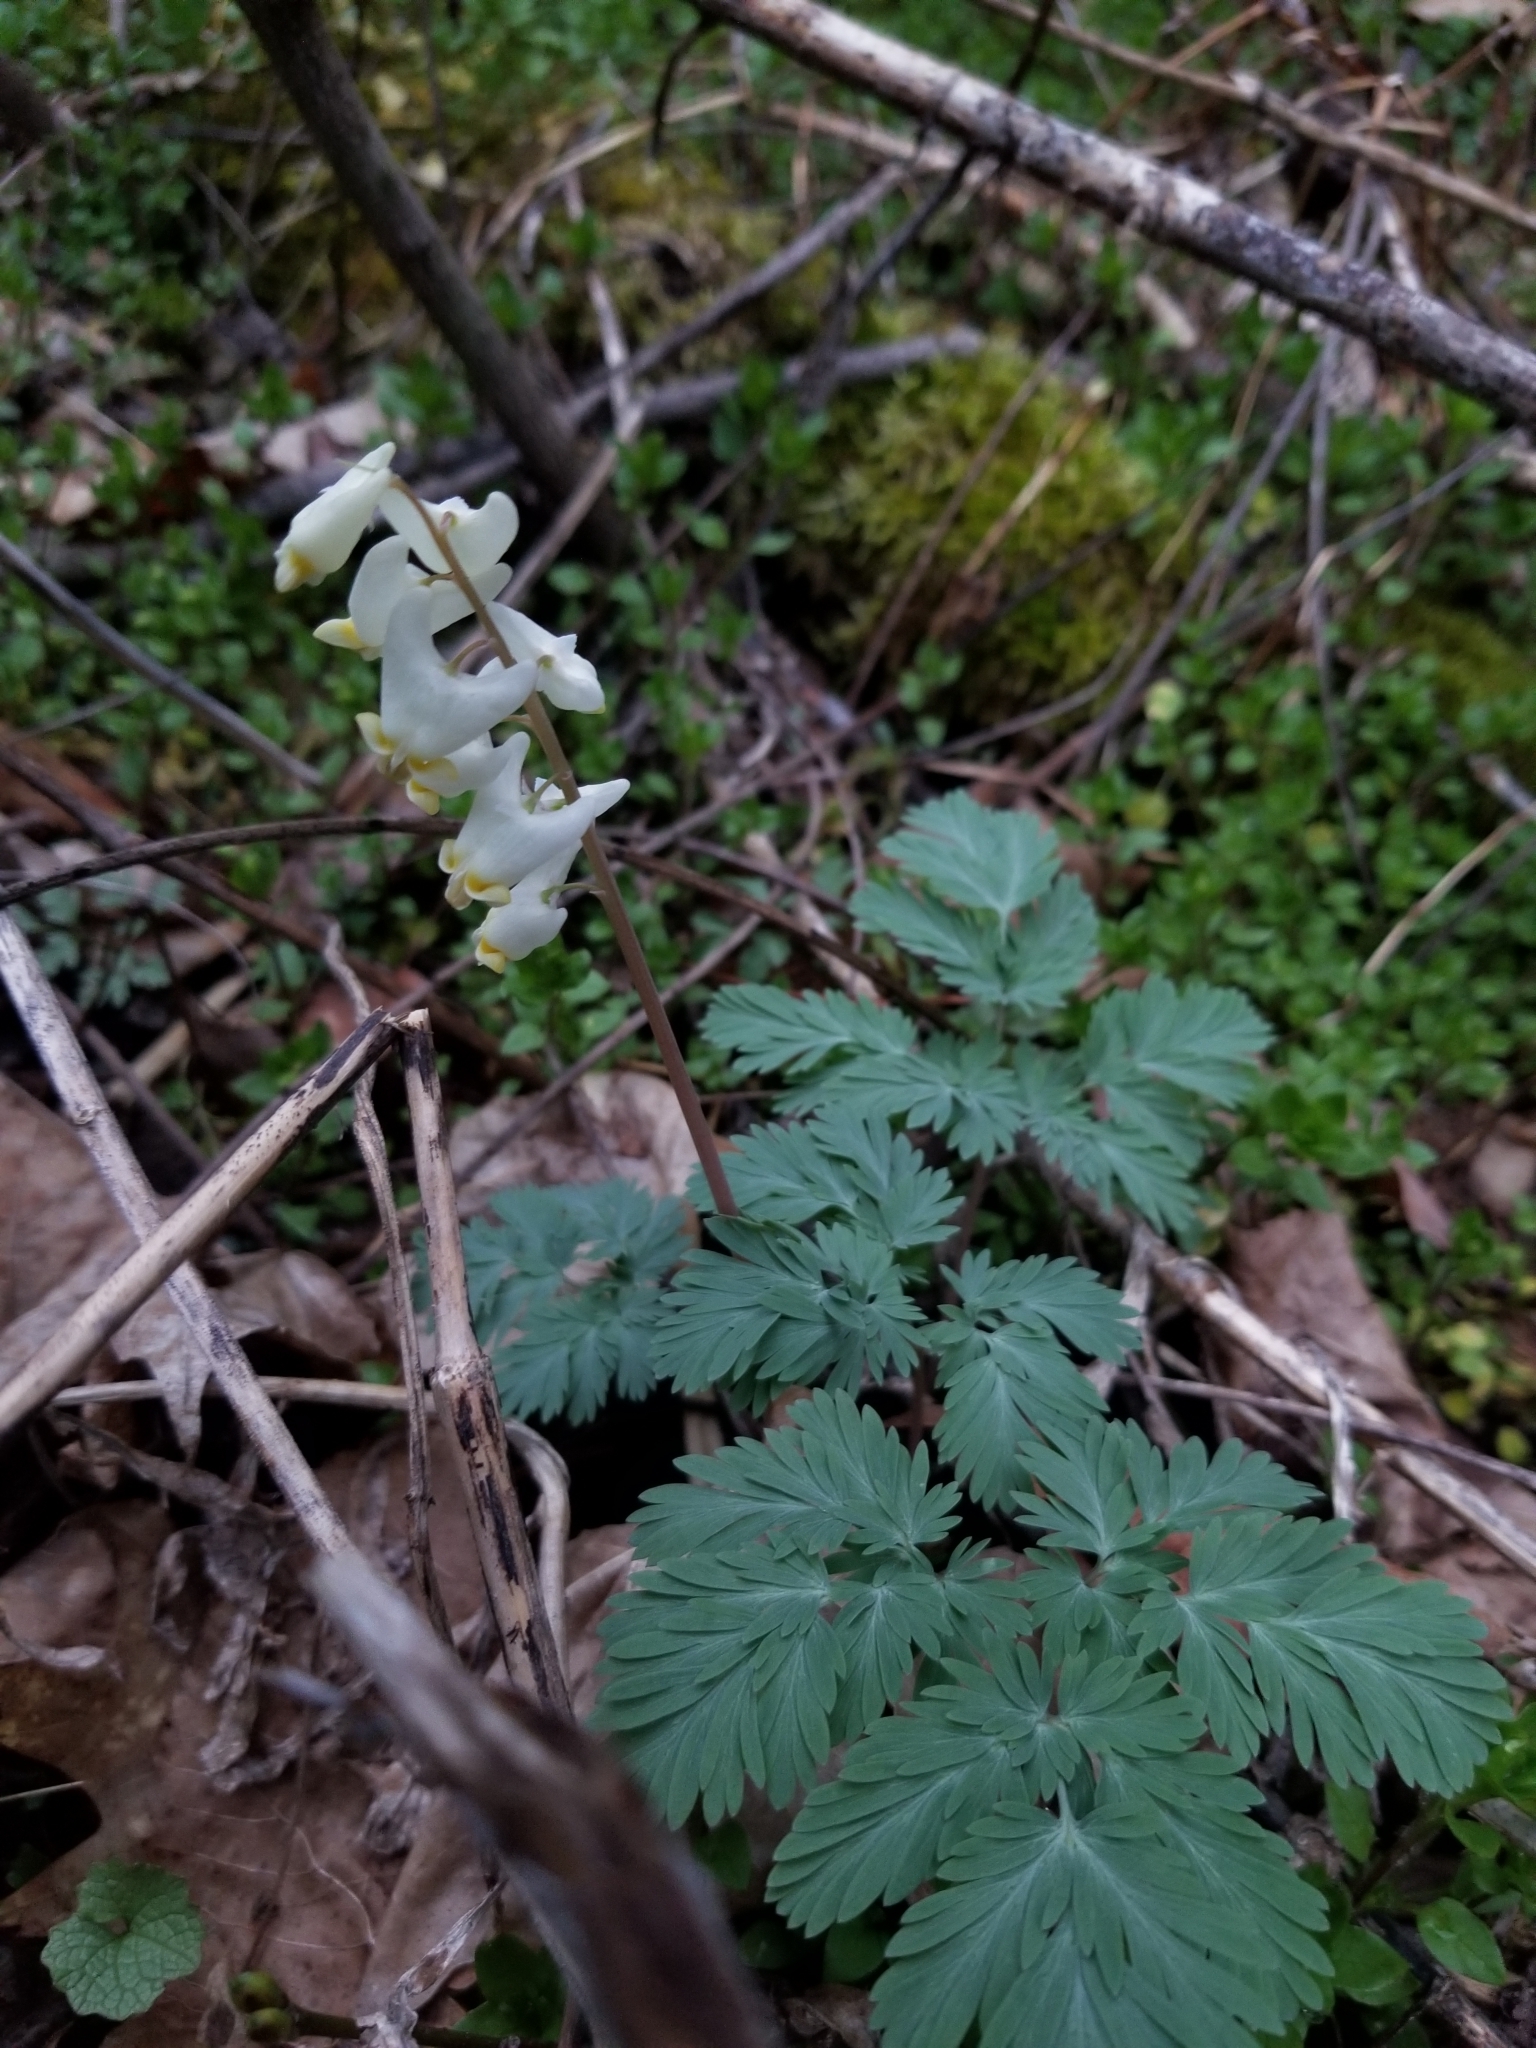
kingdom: Plantae
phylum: Tracheophyta
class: Magnoliopsida
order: Ranunculales
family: Papaveraceae
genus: Dicentra
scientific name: Dicentra cucullaria
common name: Dutchman's breeches
